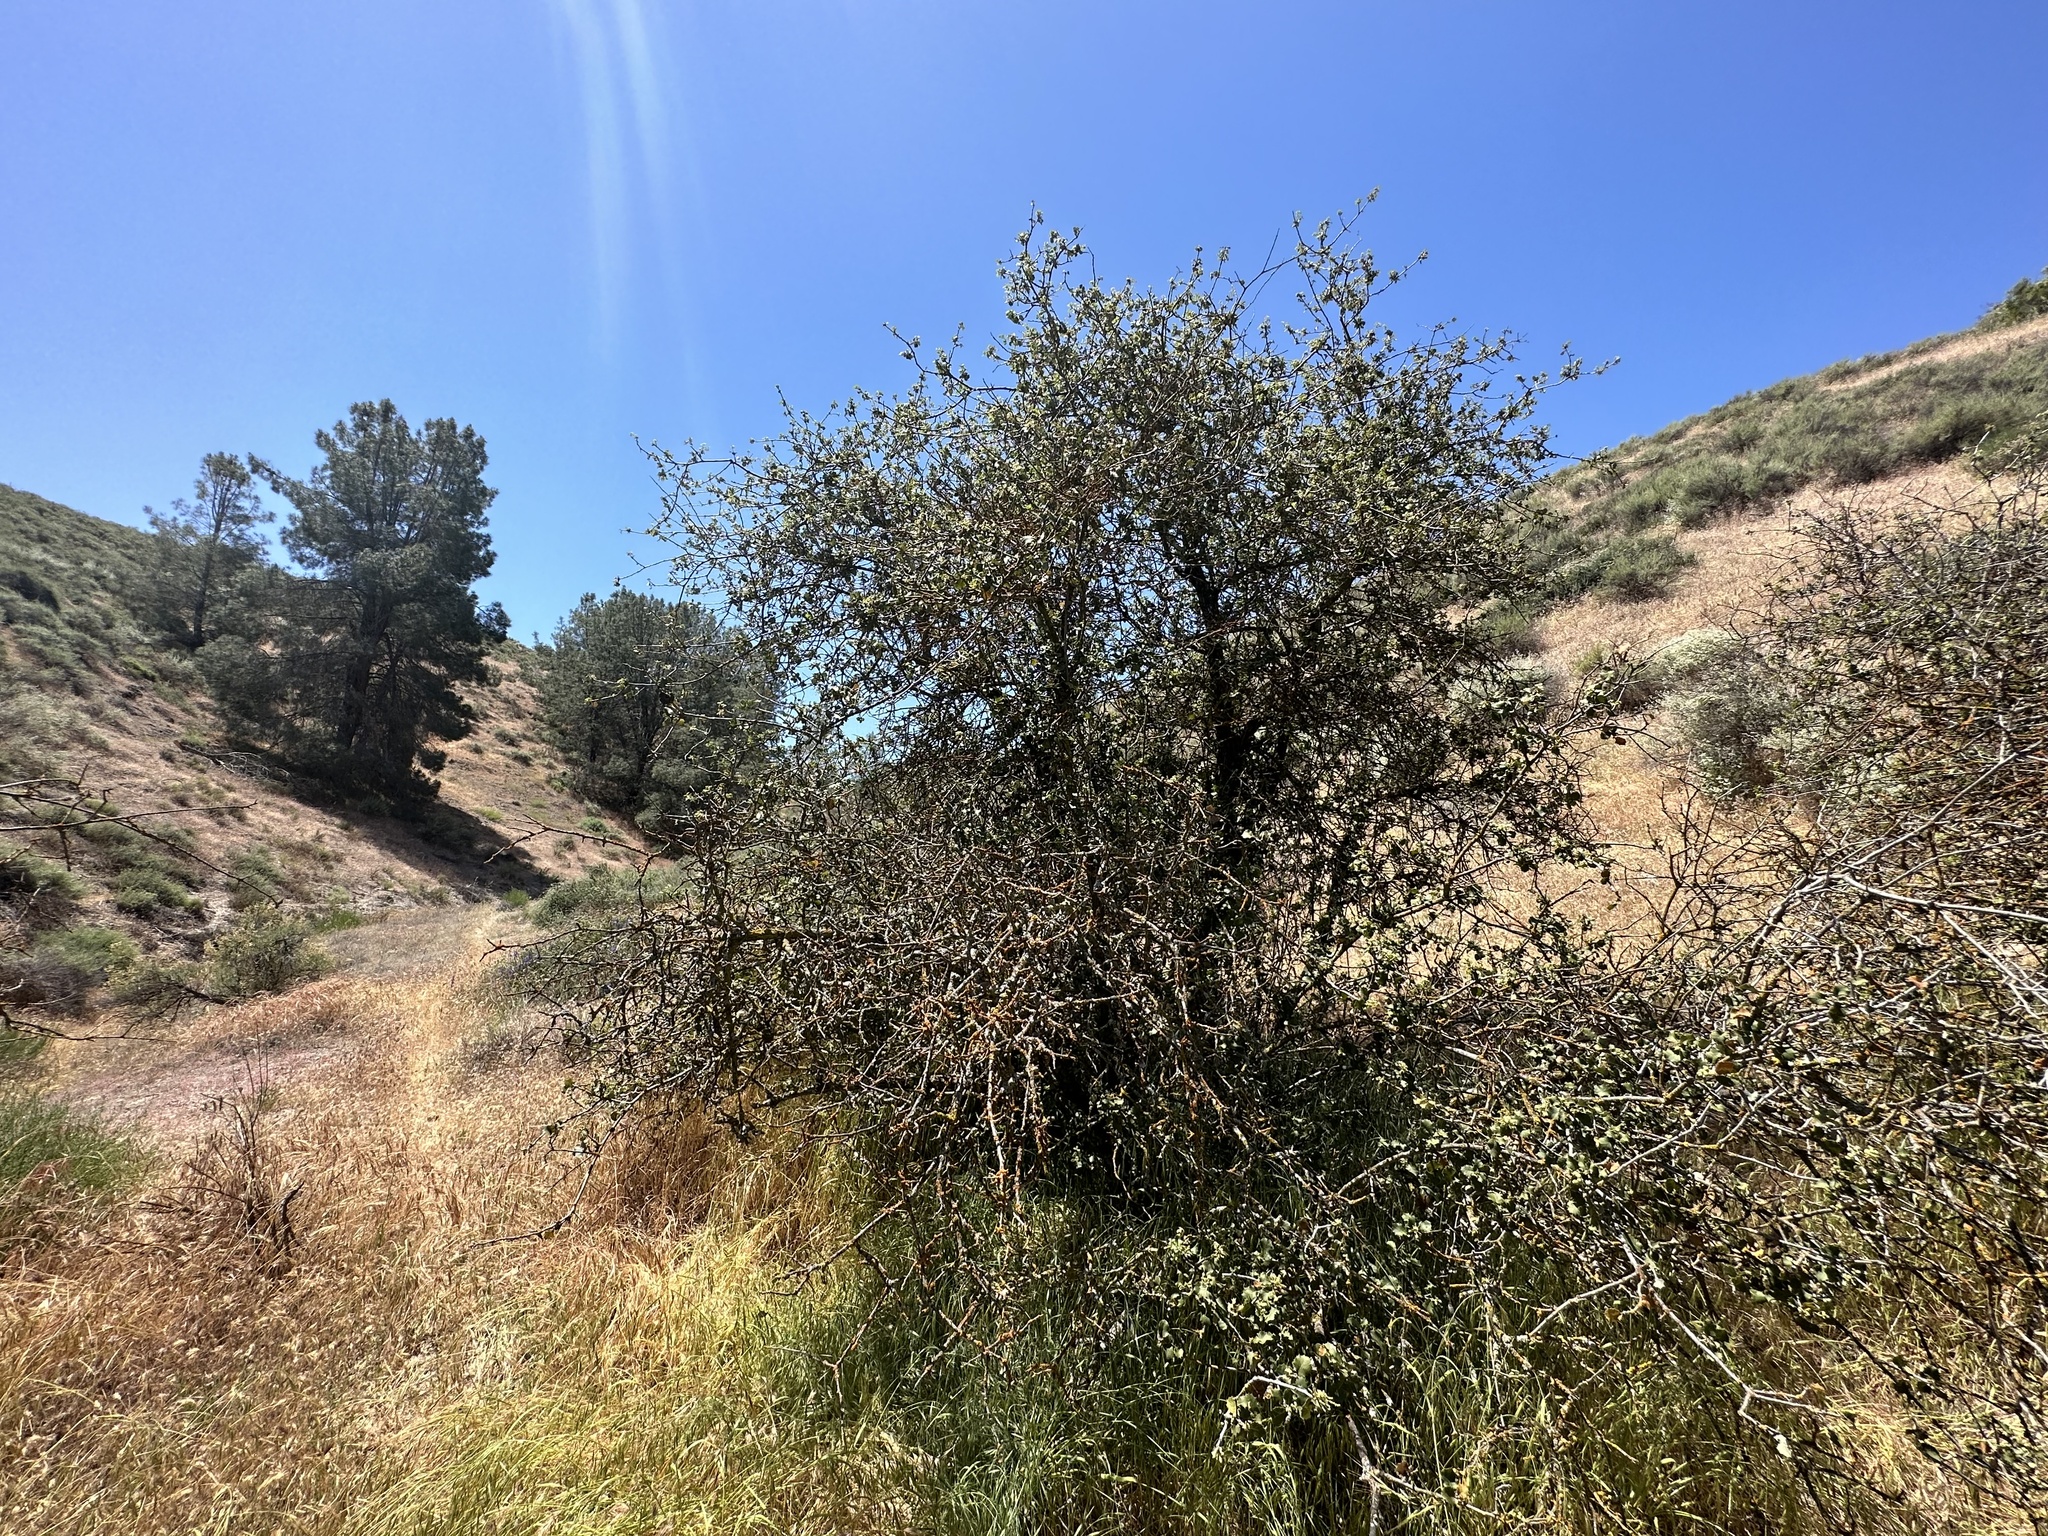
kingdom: Plantae
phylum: Tracheophyta
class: Magnoliopsida
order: Fagales
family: Fagaceae
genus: Quercus
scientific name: Quercus john-tuckeri
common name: Tucker's oak
